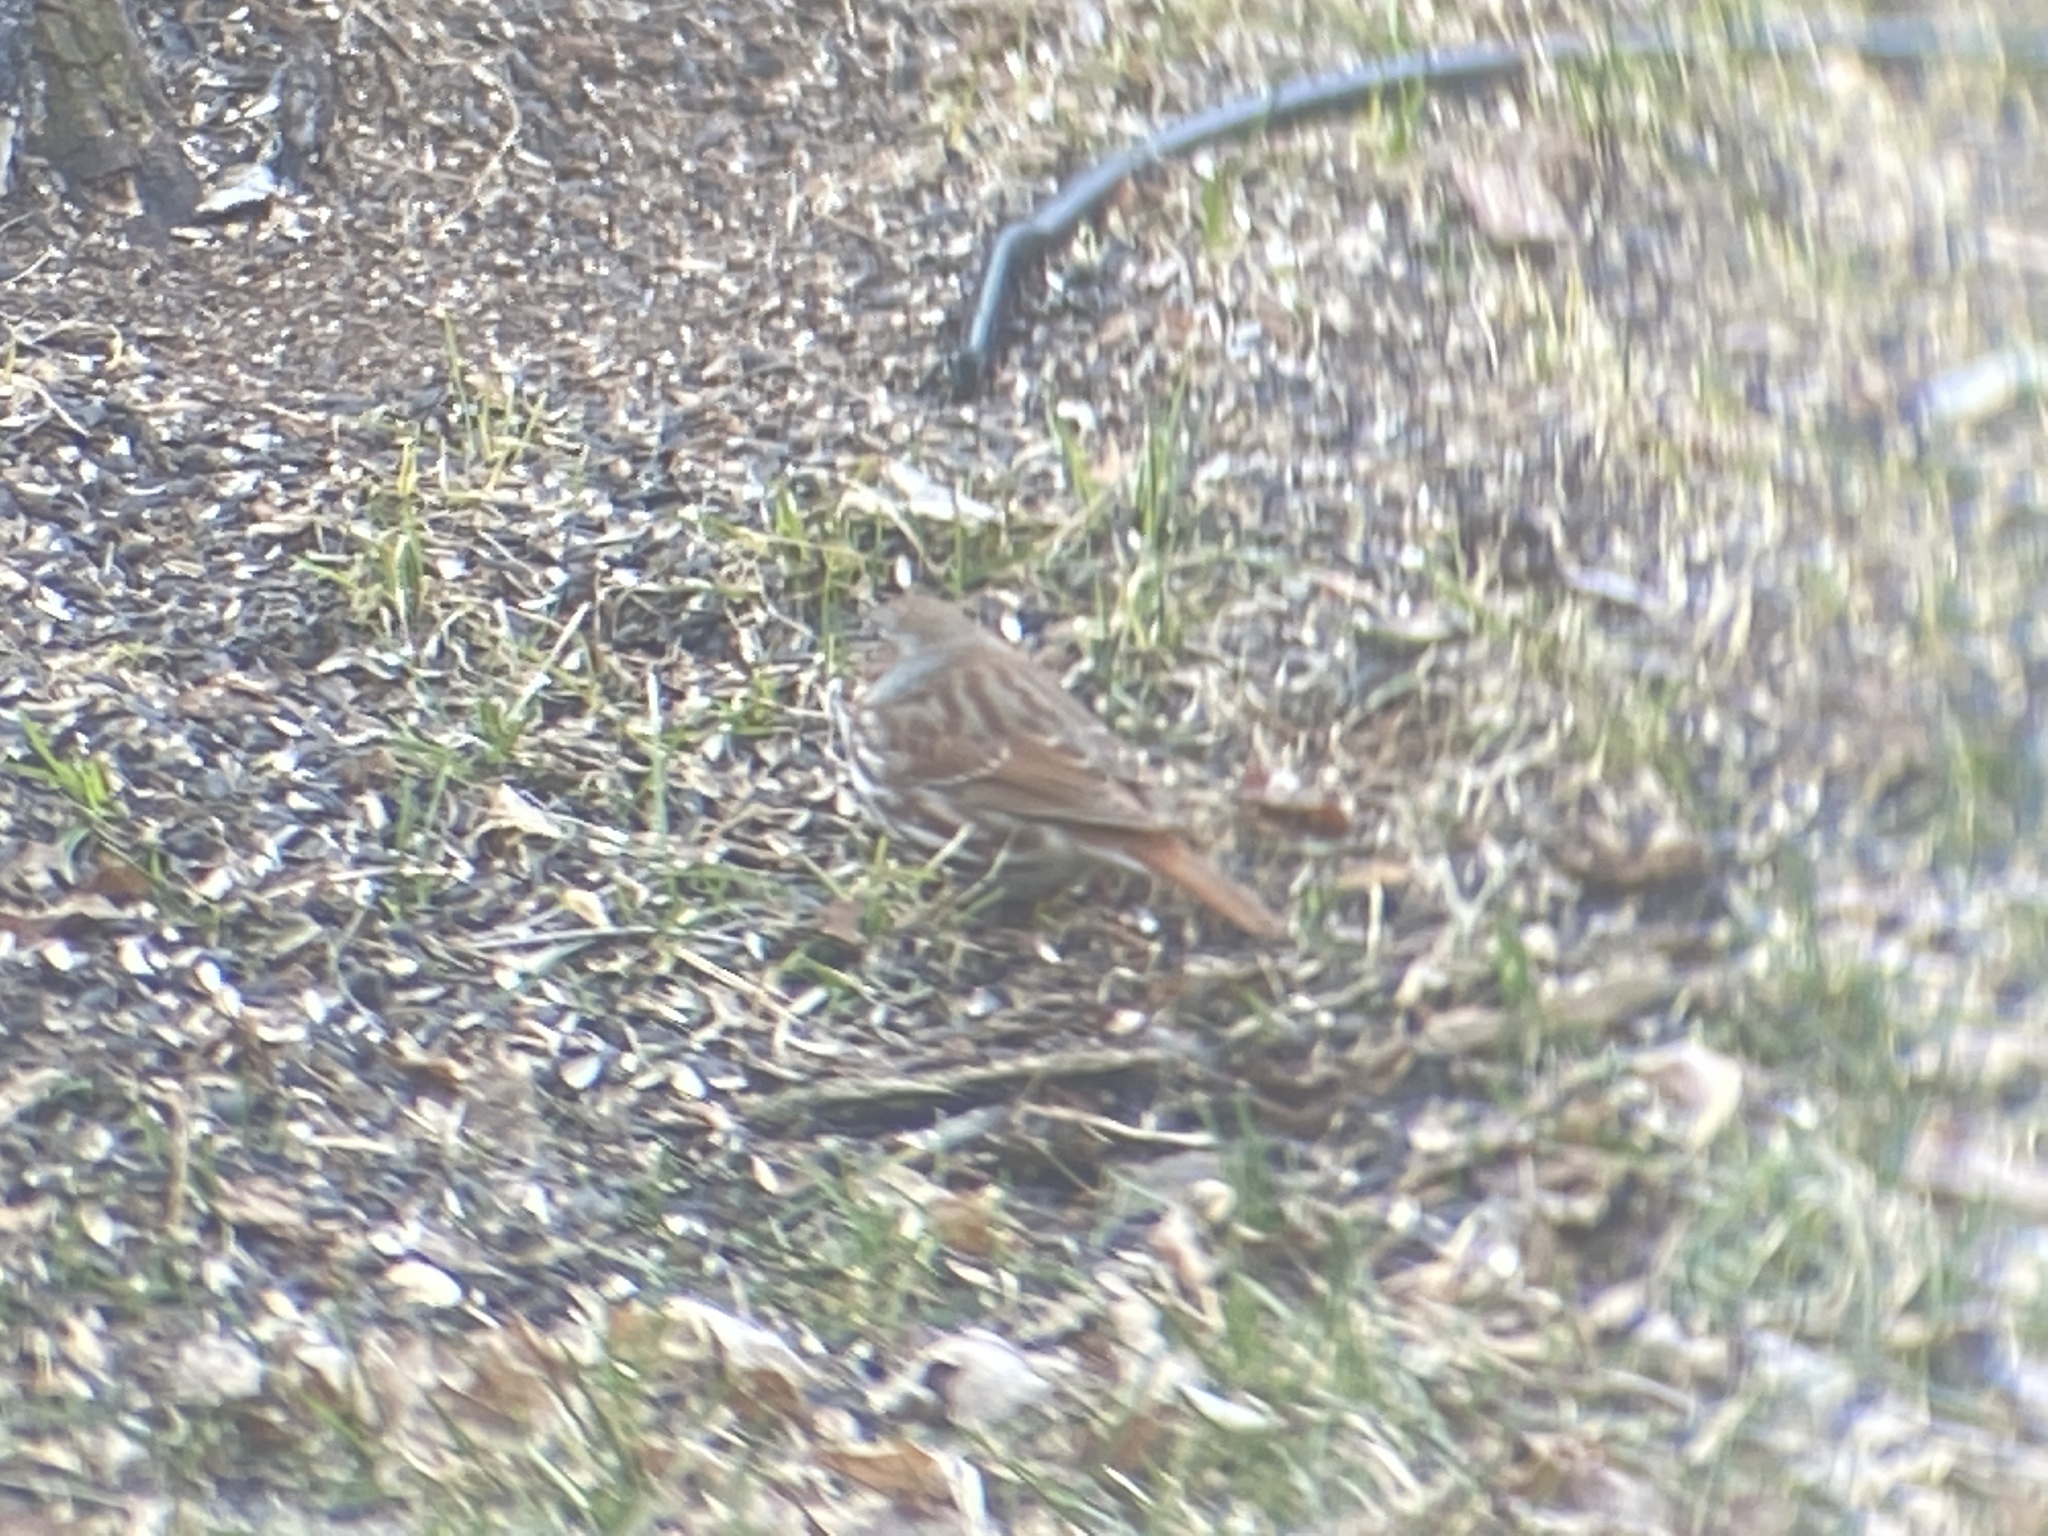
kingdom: Animalia
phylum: Chordata
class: Aves
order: Passeriformes
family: Passerellidae
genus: Passerella
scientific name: Passerella iliaca
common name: Fox sparrow
